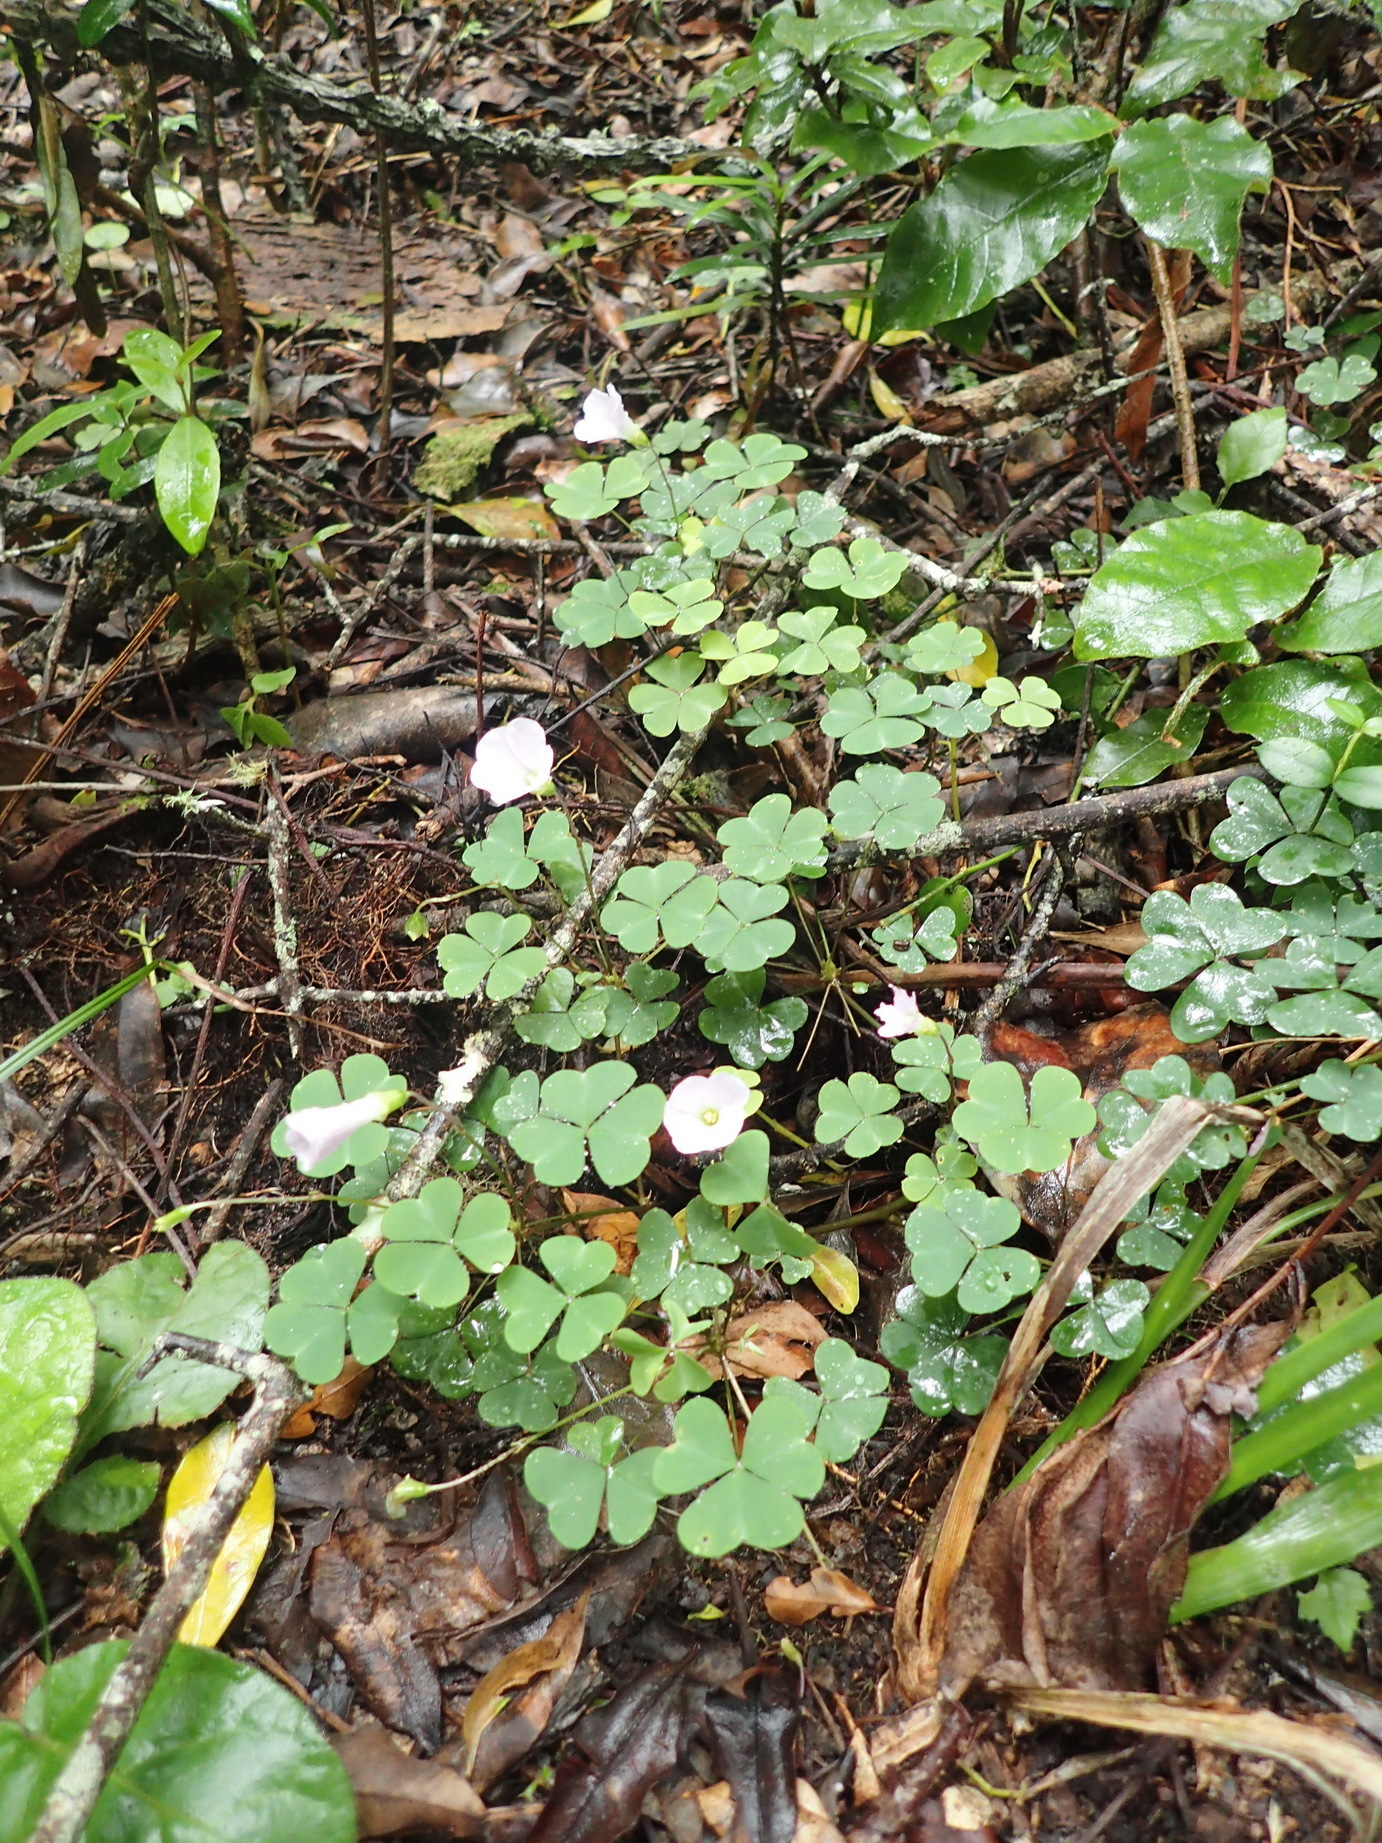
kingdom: Plantae
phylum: Tracheophyta
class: Magnoliopsida
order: Oxalidales
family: Oxalidaceae
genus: Oxalis
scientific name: Oxalis incarnata
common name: Pale pink-sorrel
